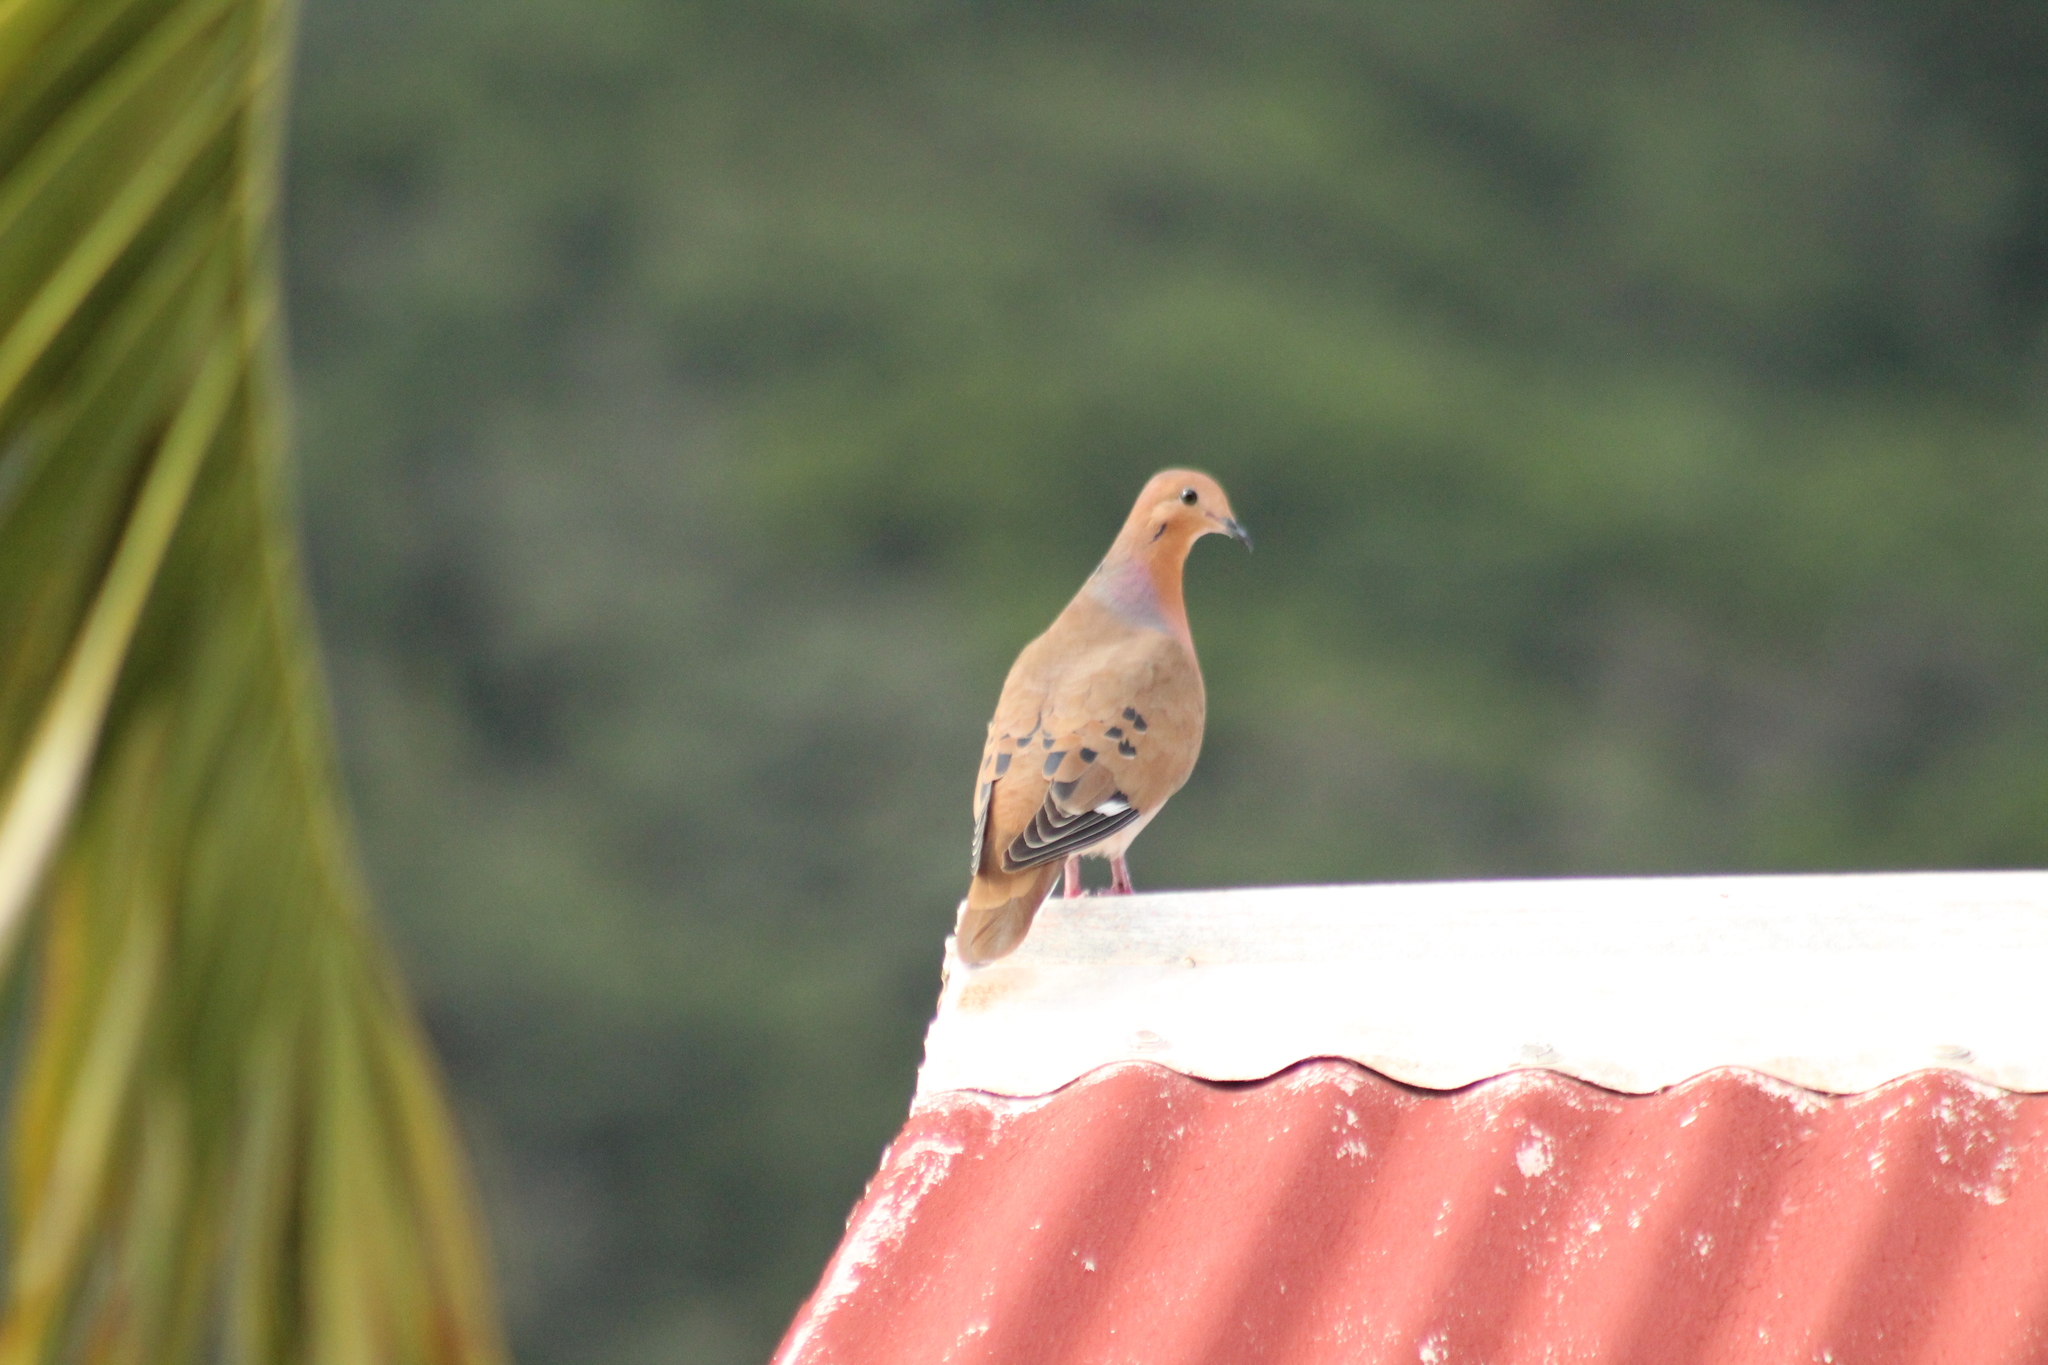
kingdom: Animalia
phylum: Chordata
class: Aves
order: Columbiformes
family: Columbidae
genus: Zenaida
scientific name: Zenaida aurita
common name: Zenaida dove
